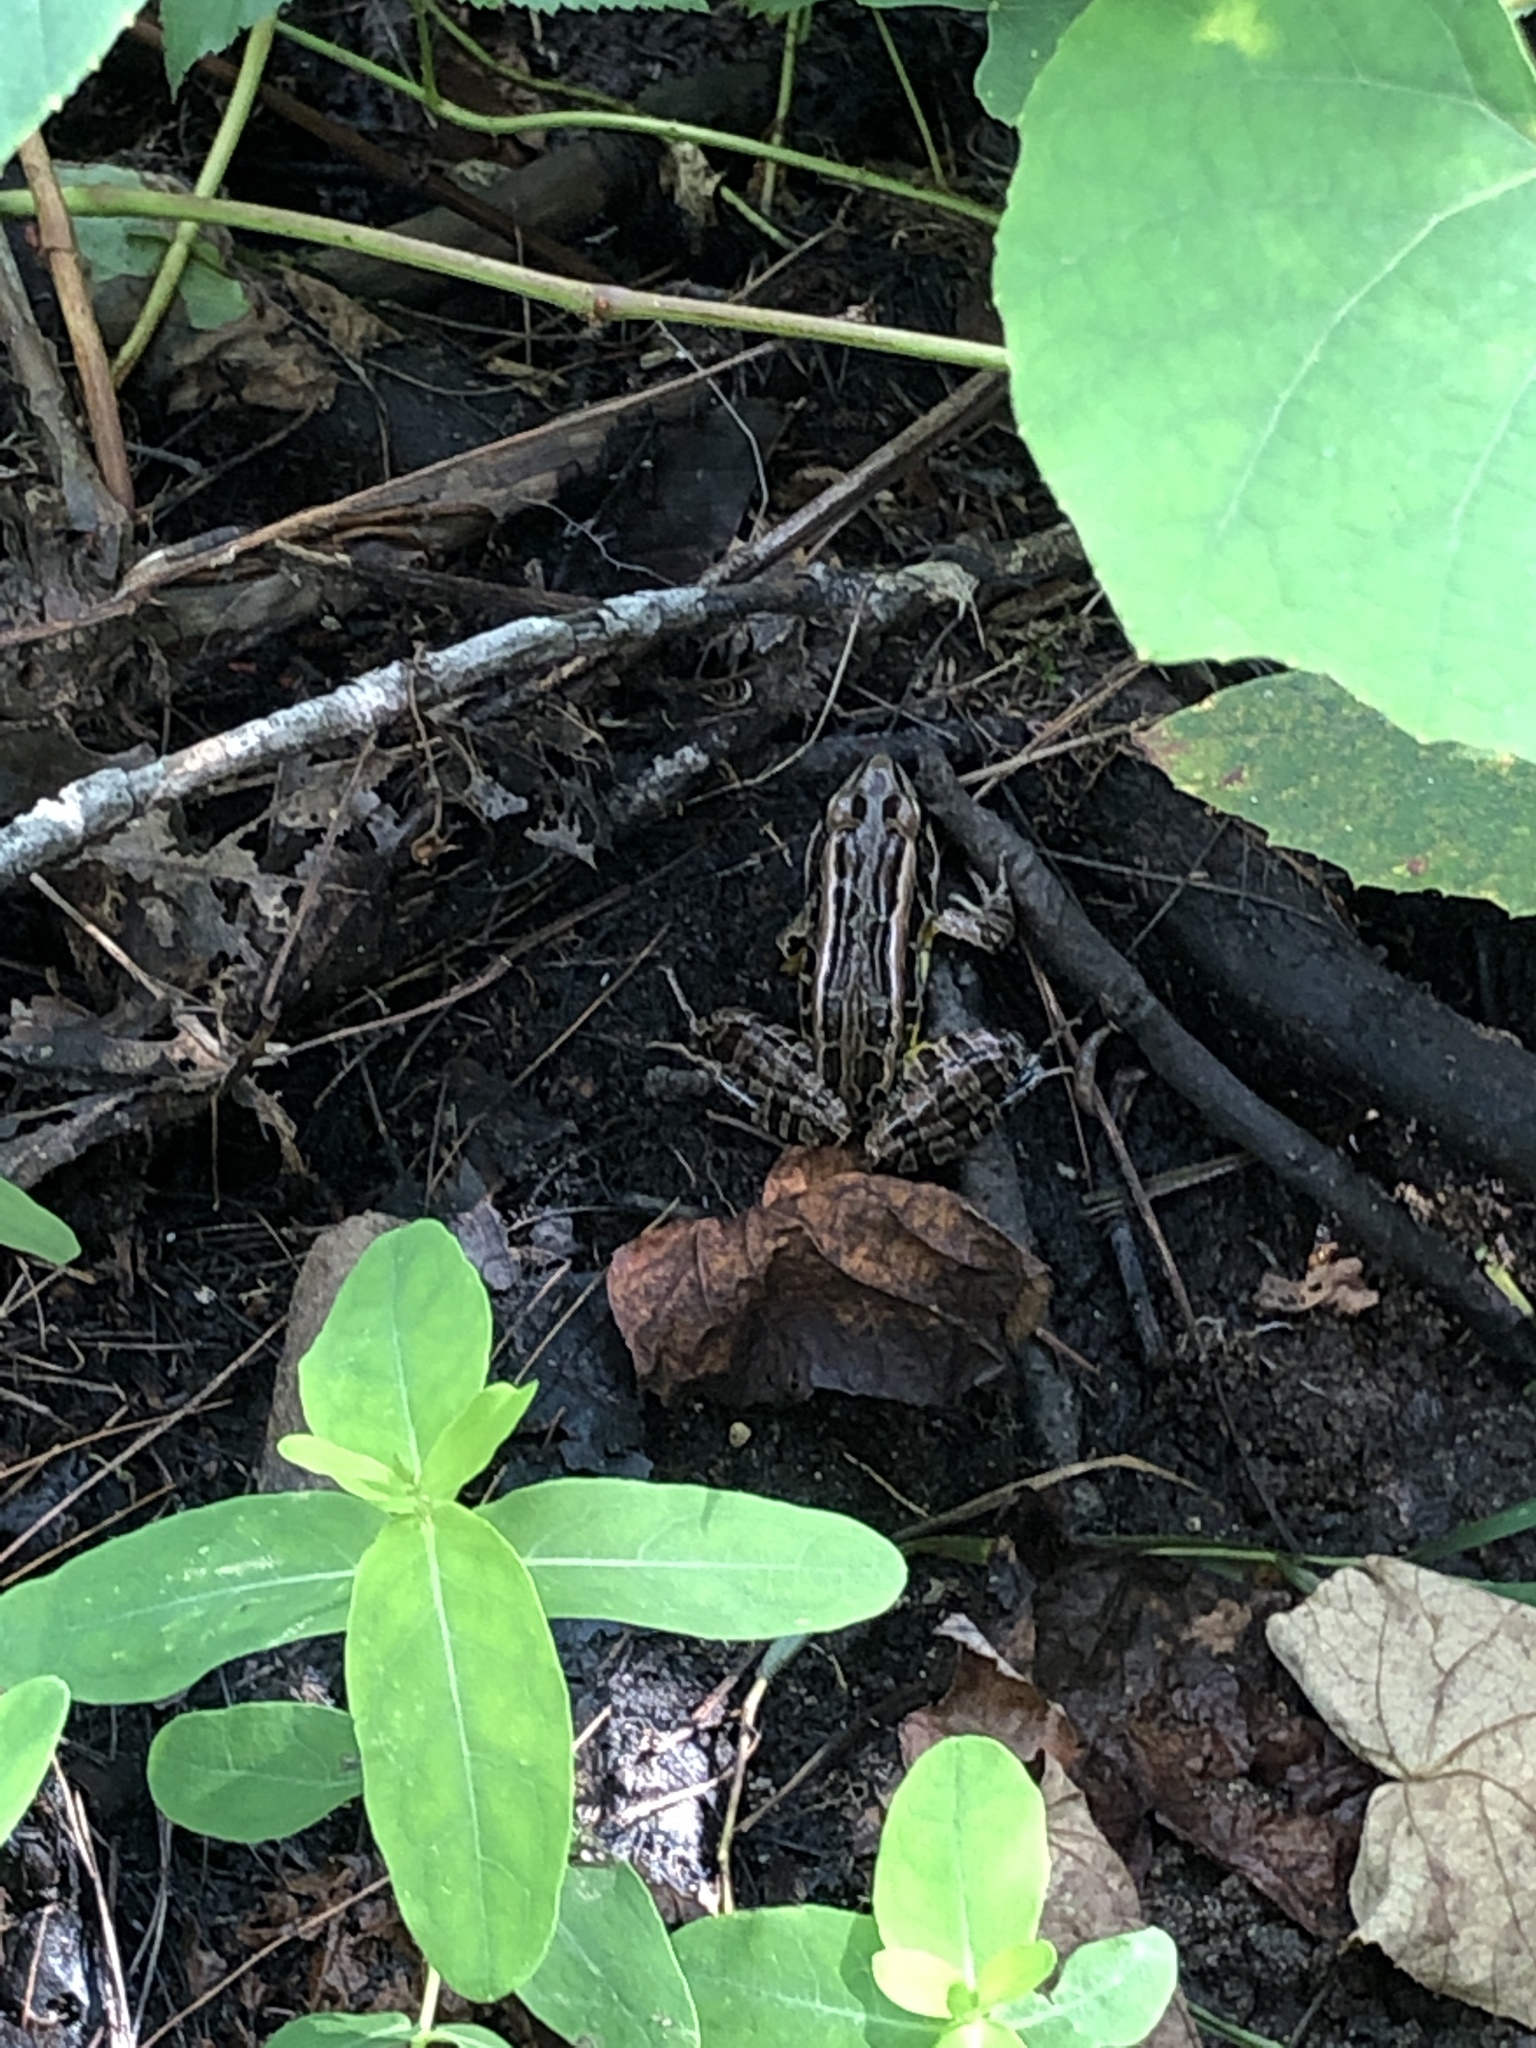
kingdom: Animalia
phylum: Chordata
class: Amphibia
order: Anura
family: Ranidae
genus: Lithobates
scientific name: Lithobates palustris
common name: Pickerel frog
